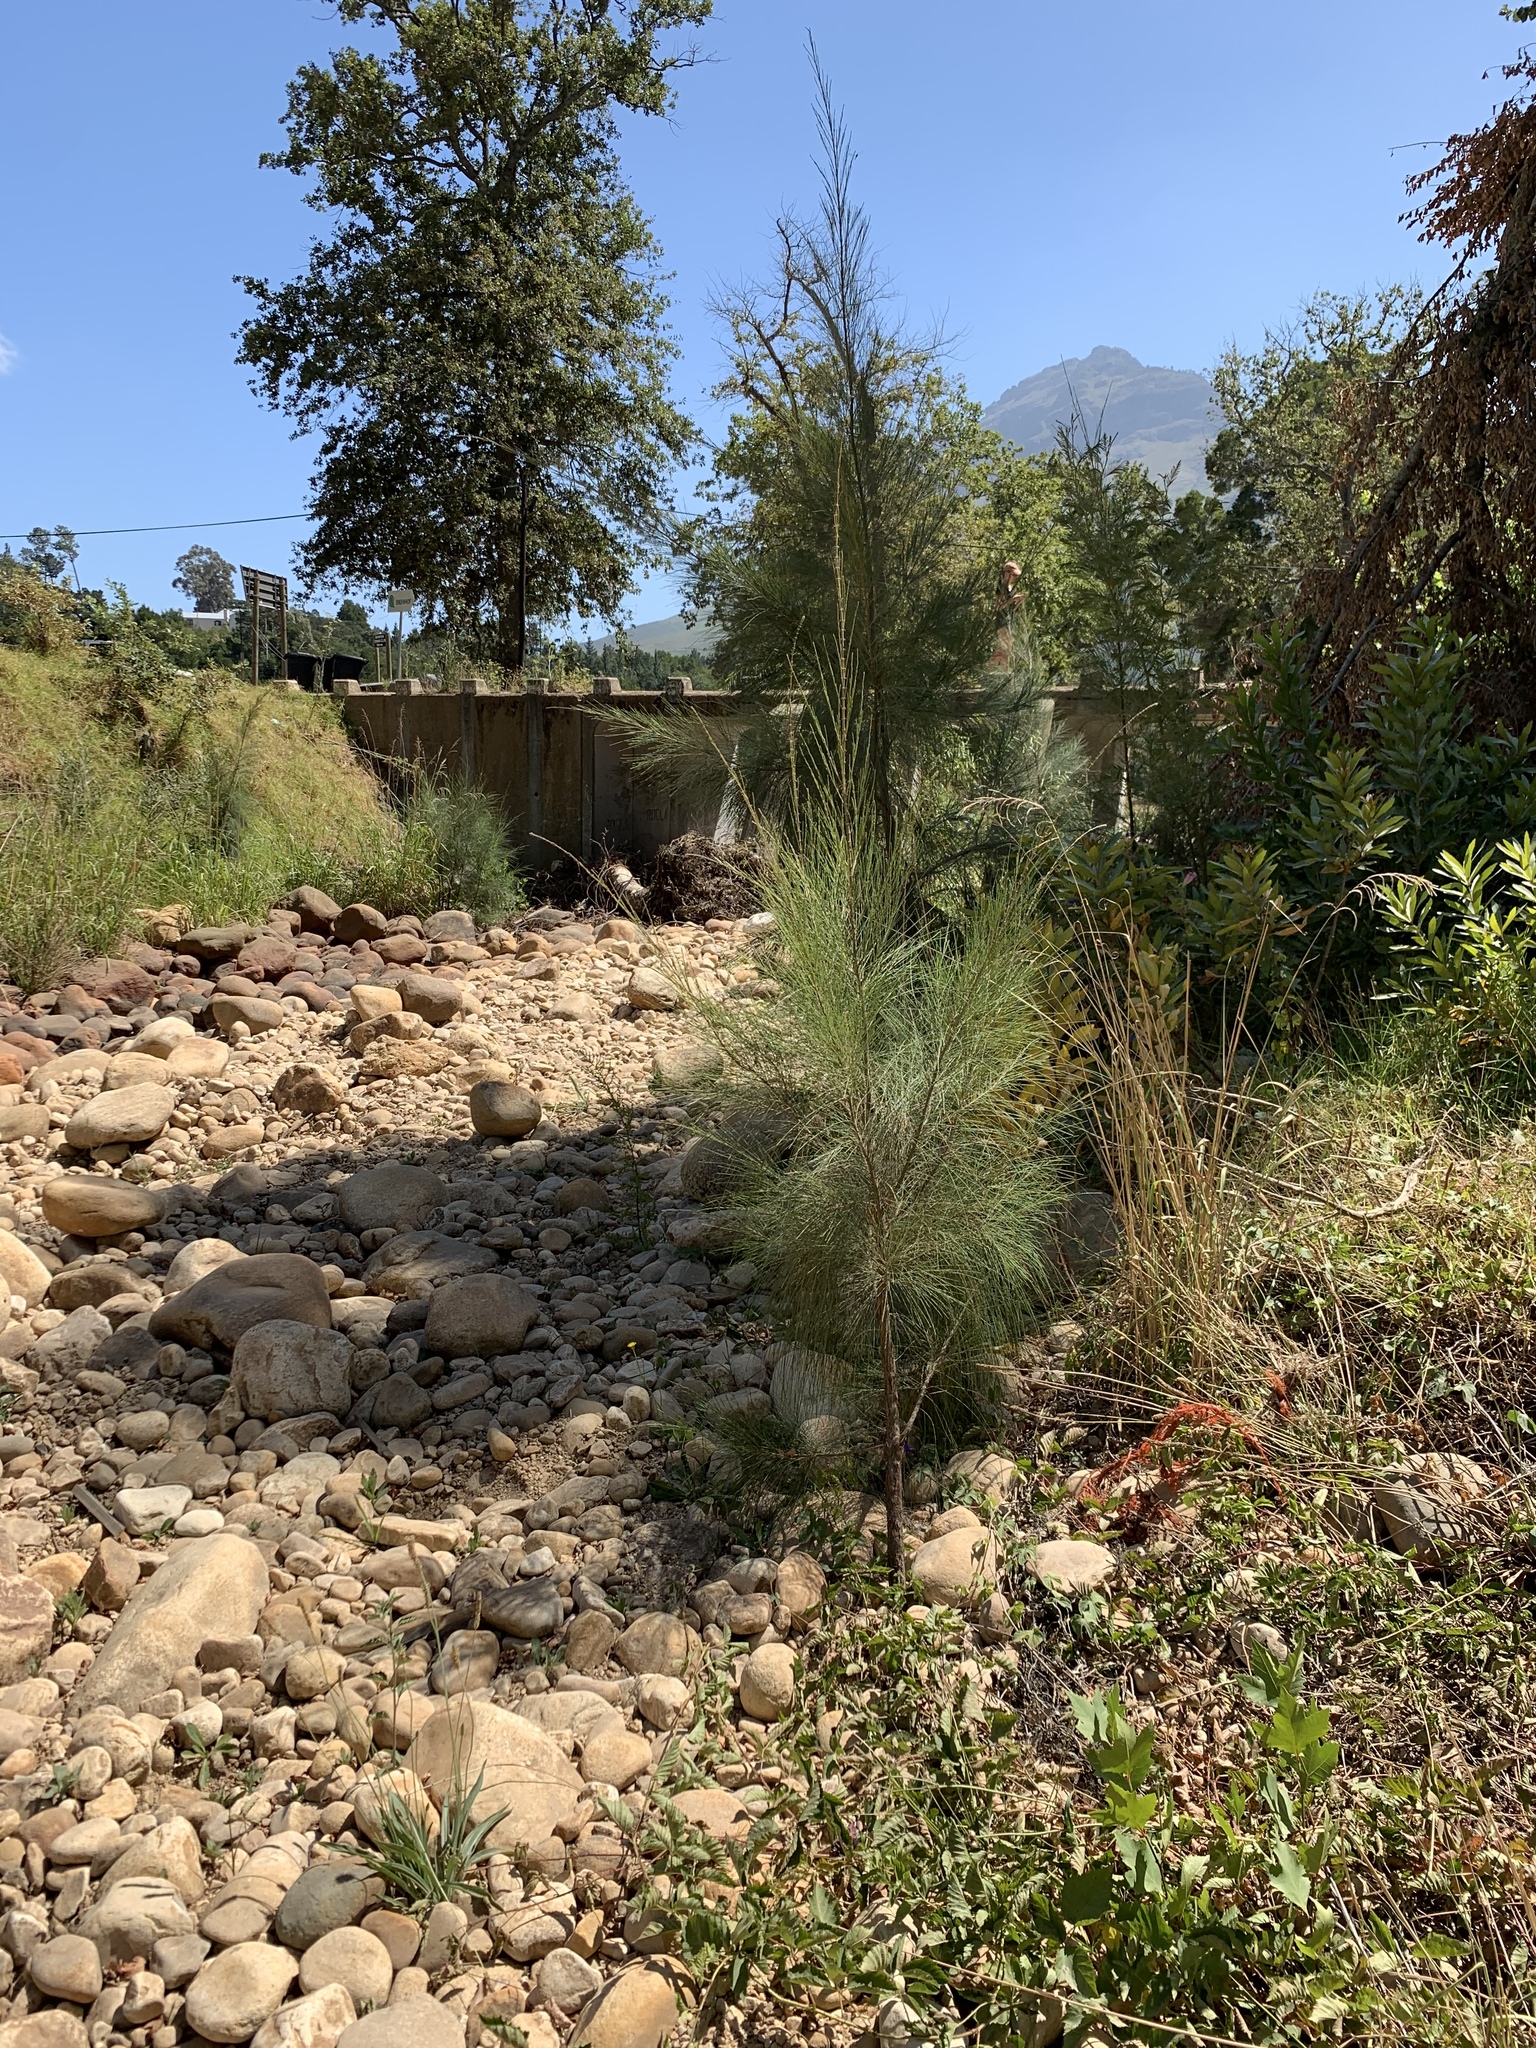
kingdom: Plantae
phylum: Tracheophyta
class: Magnoliopsida
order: Fagales
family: Casuarinaceae
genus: Casuarina
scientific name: Casuarina cunninghamiana
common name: River sheoak
